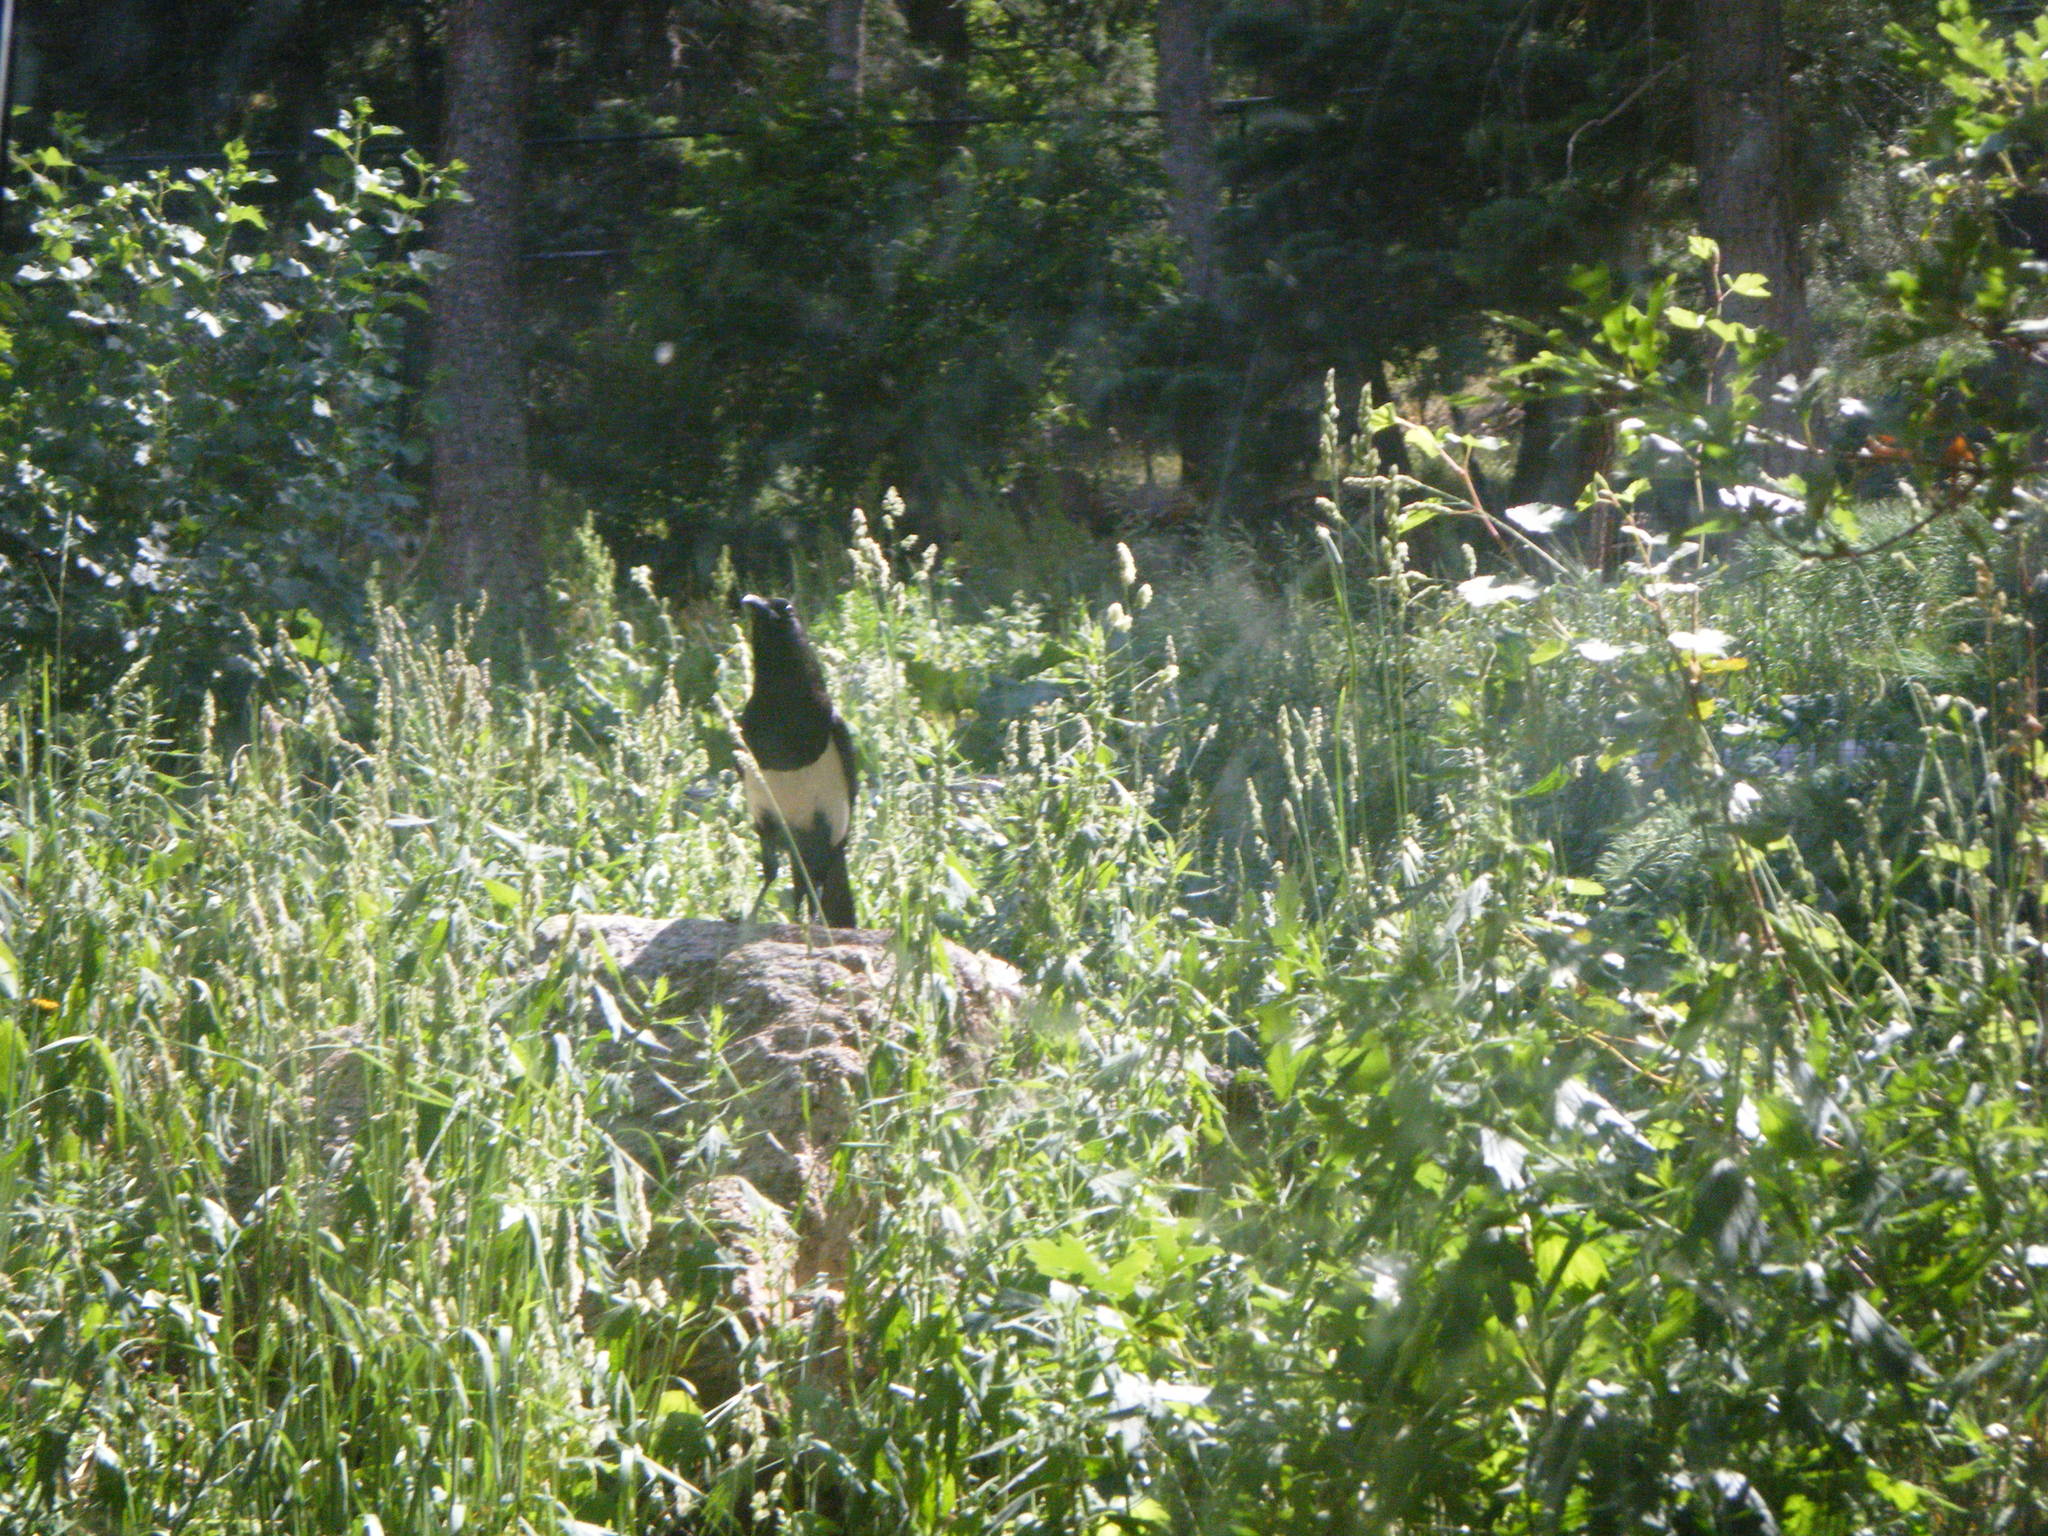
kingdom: Animalia
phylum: Chordata
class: Aves
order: Passeriformes
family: Corvidae
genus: Pica
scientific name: Pica hudsonia
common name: Black-billed magpie
